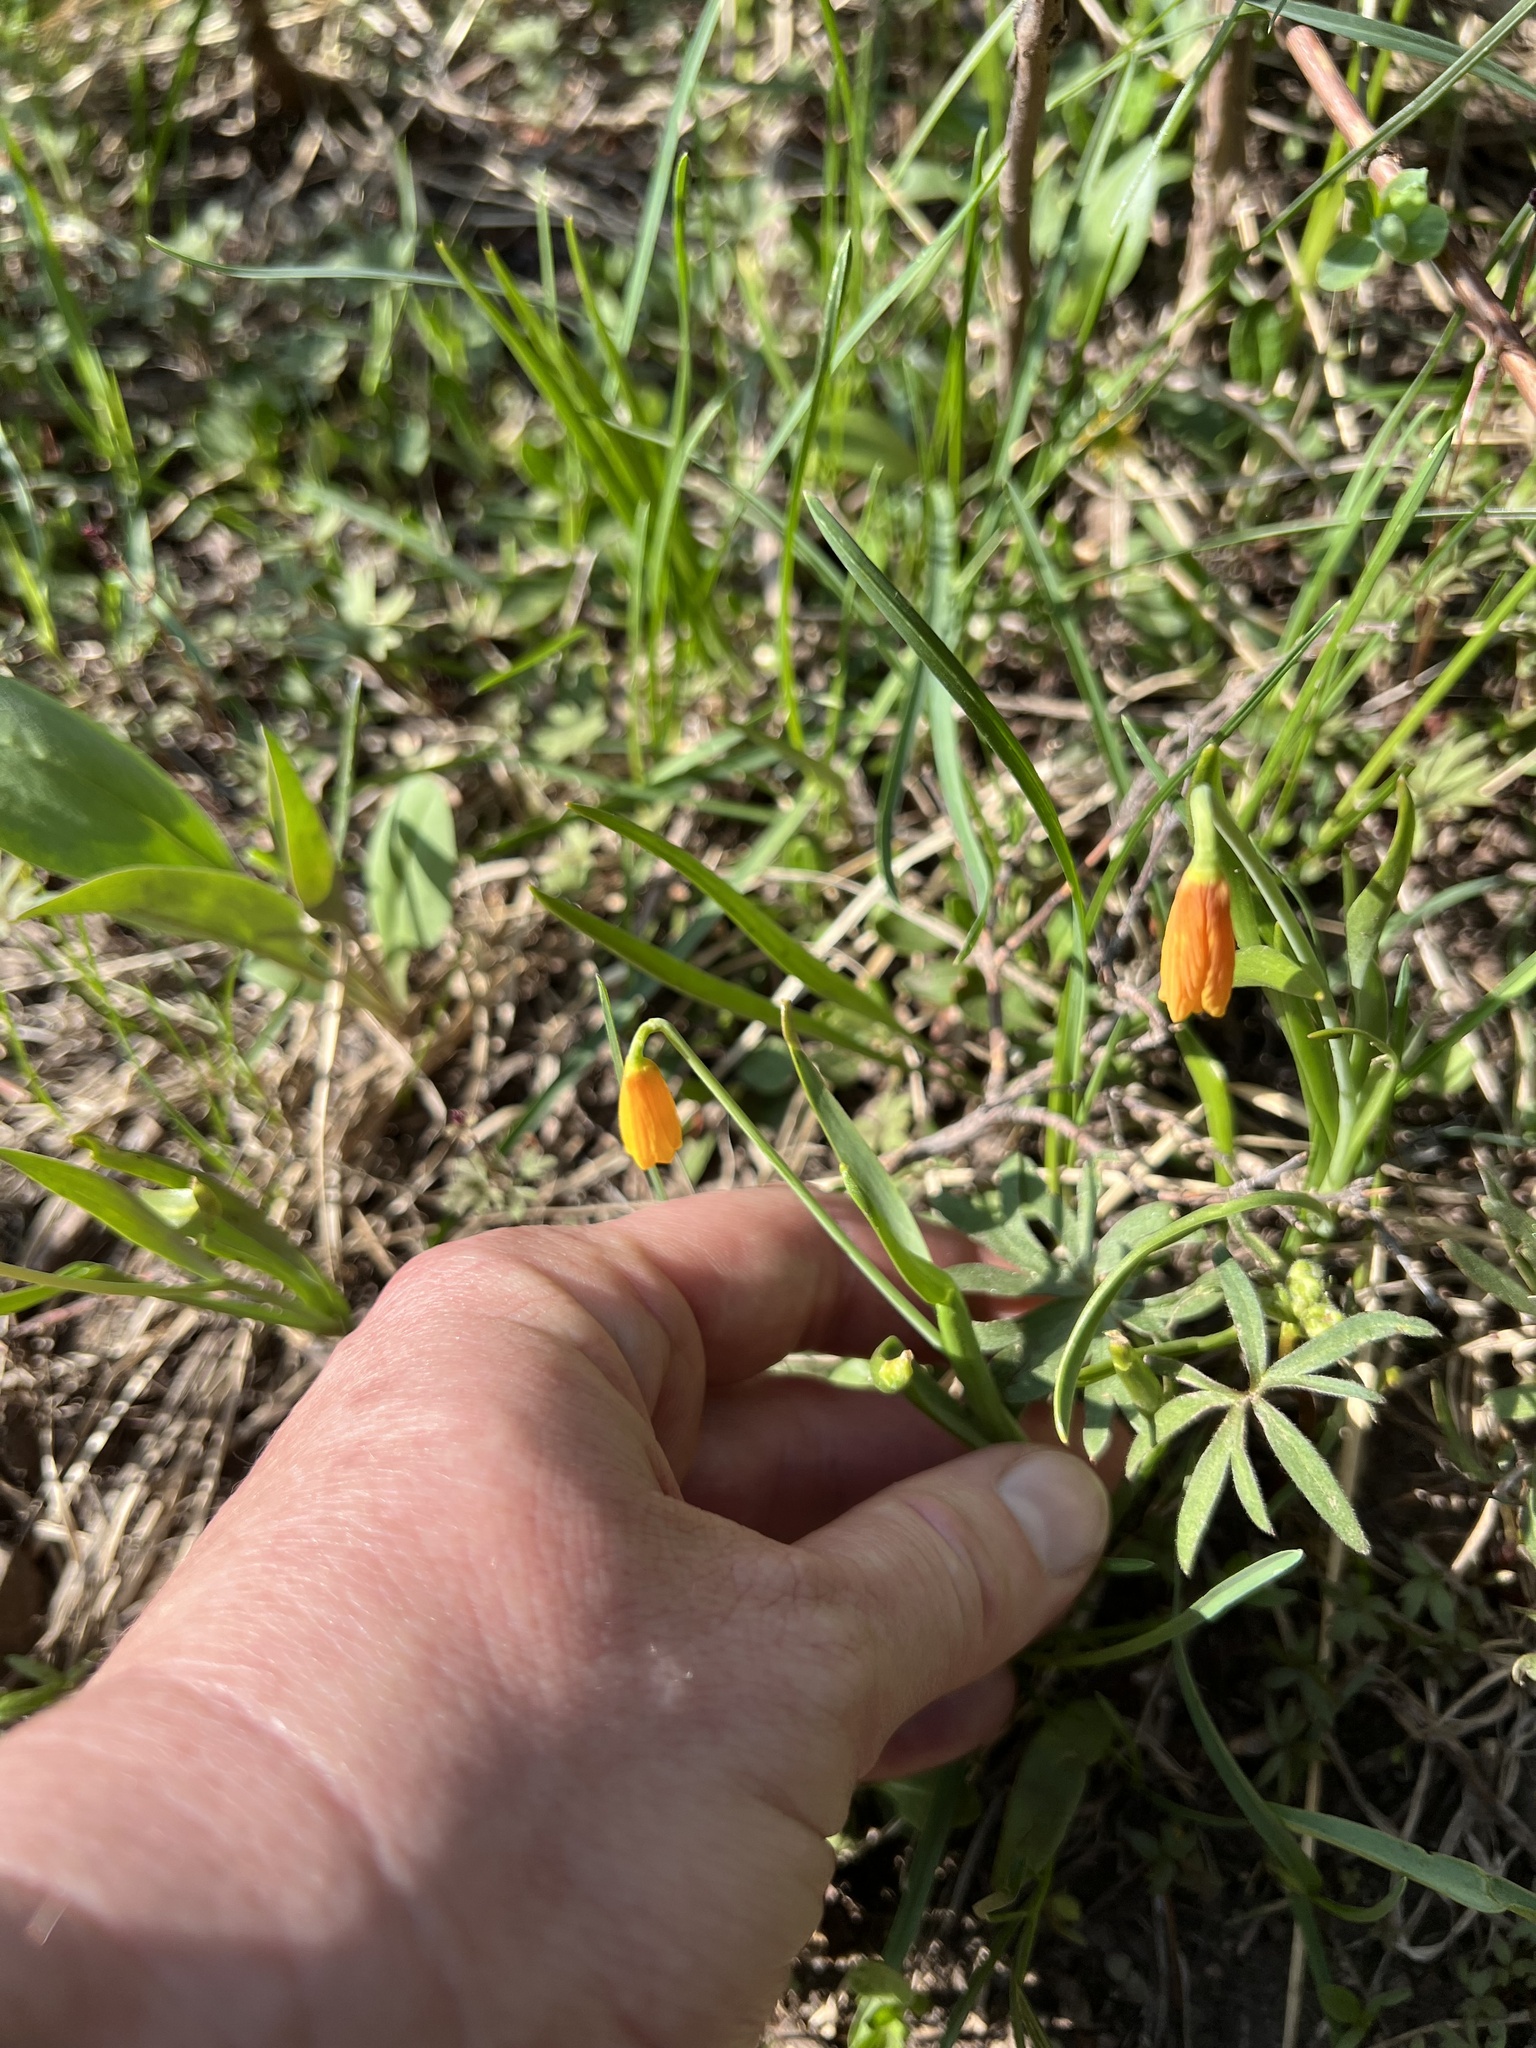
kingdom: Plantae
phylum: Tracheophyta
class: Liliopsida
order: Liliales
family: Liliaceae
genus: Fritillaria
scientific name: Fritillaria pudica
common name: Yellow fritillary
